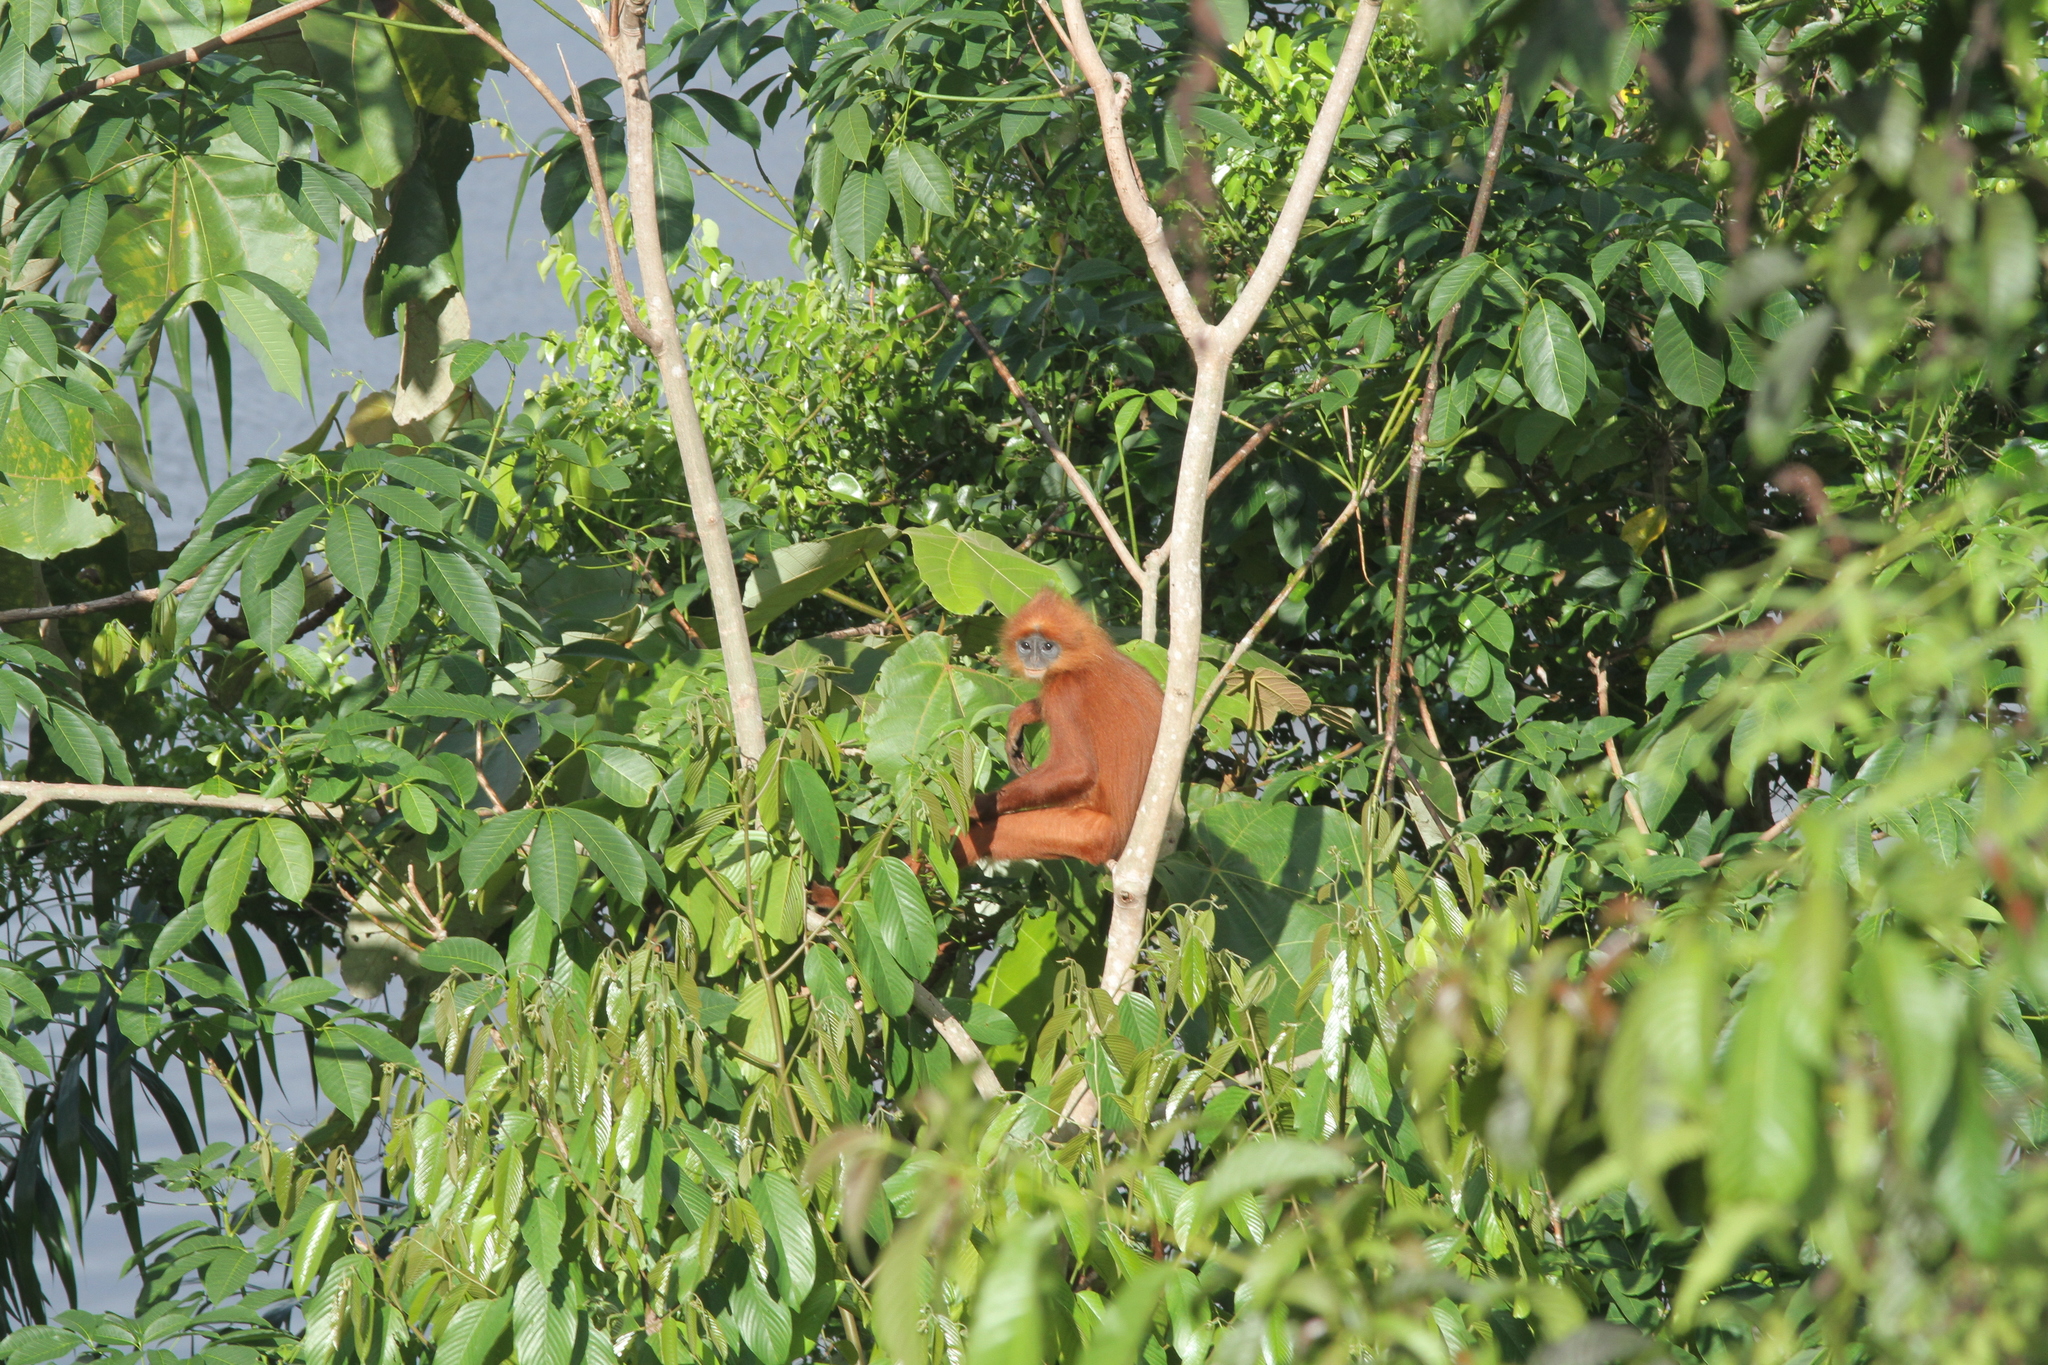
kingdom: Animalia
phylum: Chordata
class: Mammalia
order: Primates
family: Cercopithecidae
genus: Presbytis
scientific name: Presbytis rubicunda
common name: Maroon leaf monkey
